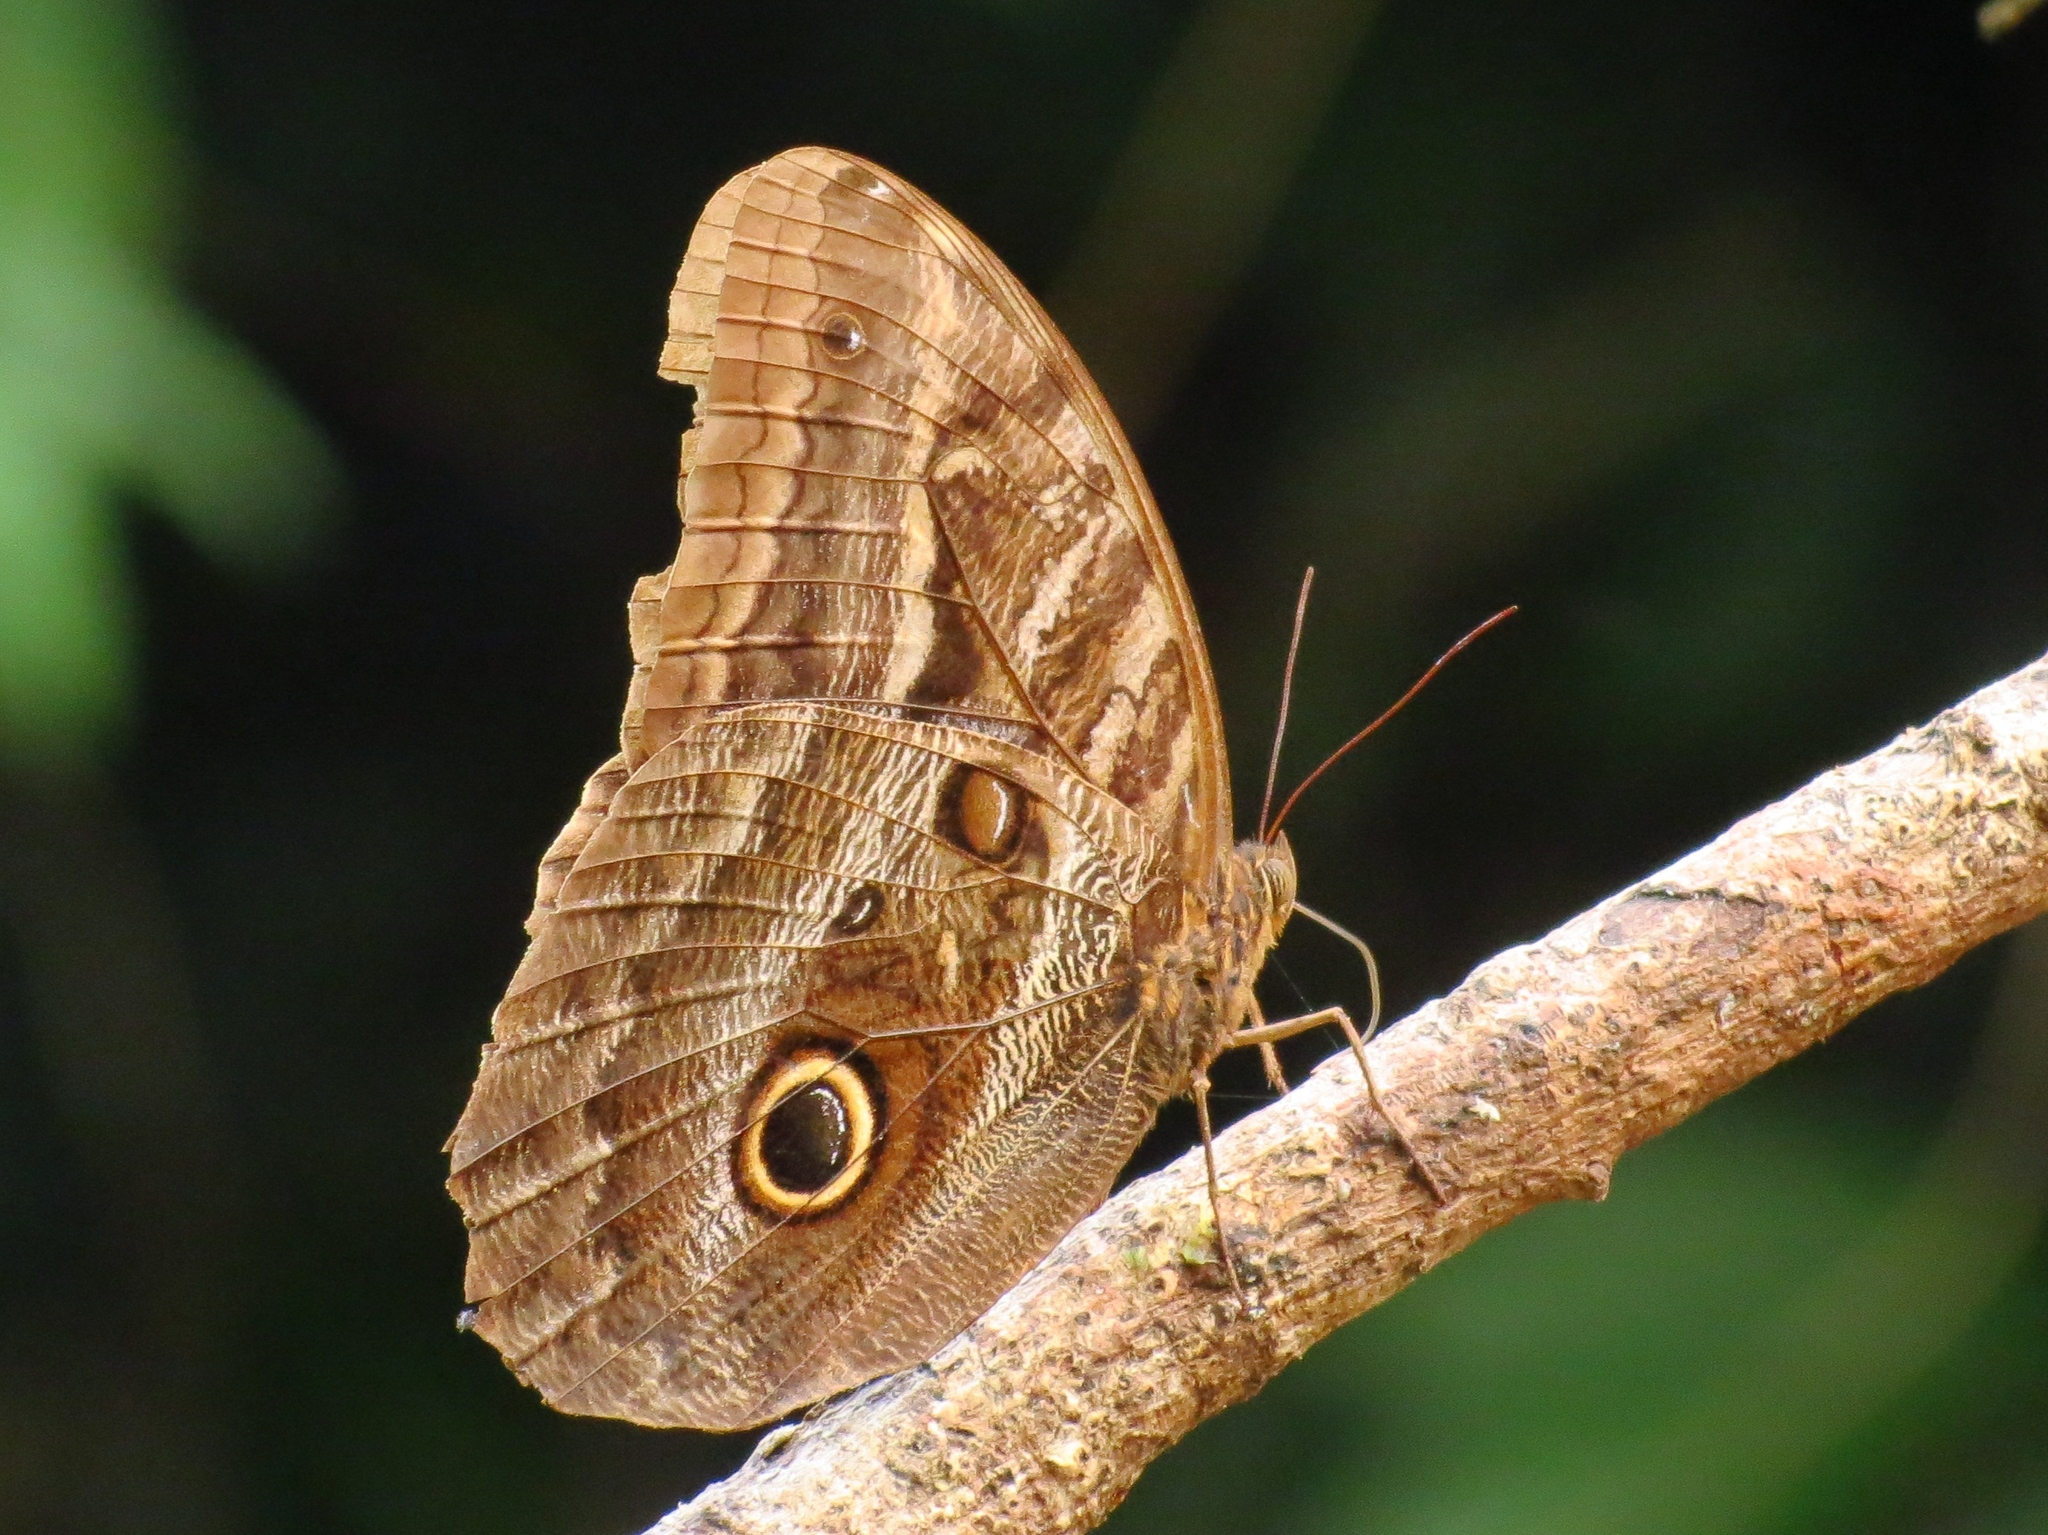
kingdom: Animalia
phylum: Arthropoda
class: Insecta
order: Lepidoptera
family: Nymphalidae
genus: Caligo
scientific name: Caligo illioneus
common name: Dusky owl-butterfly
